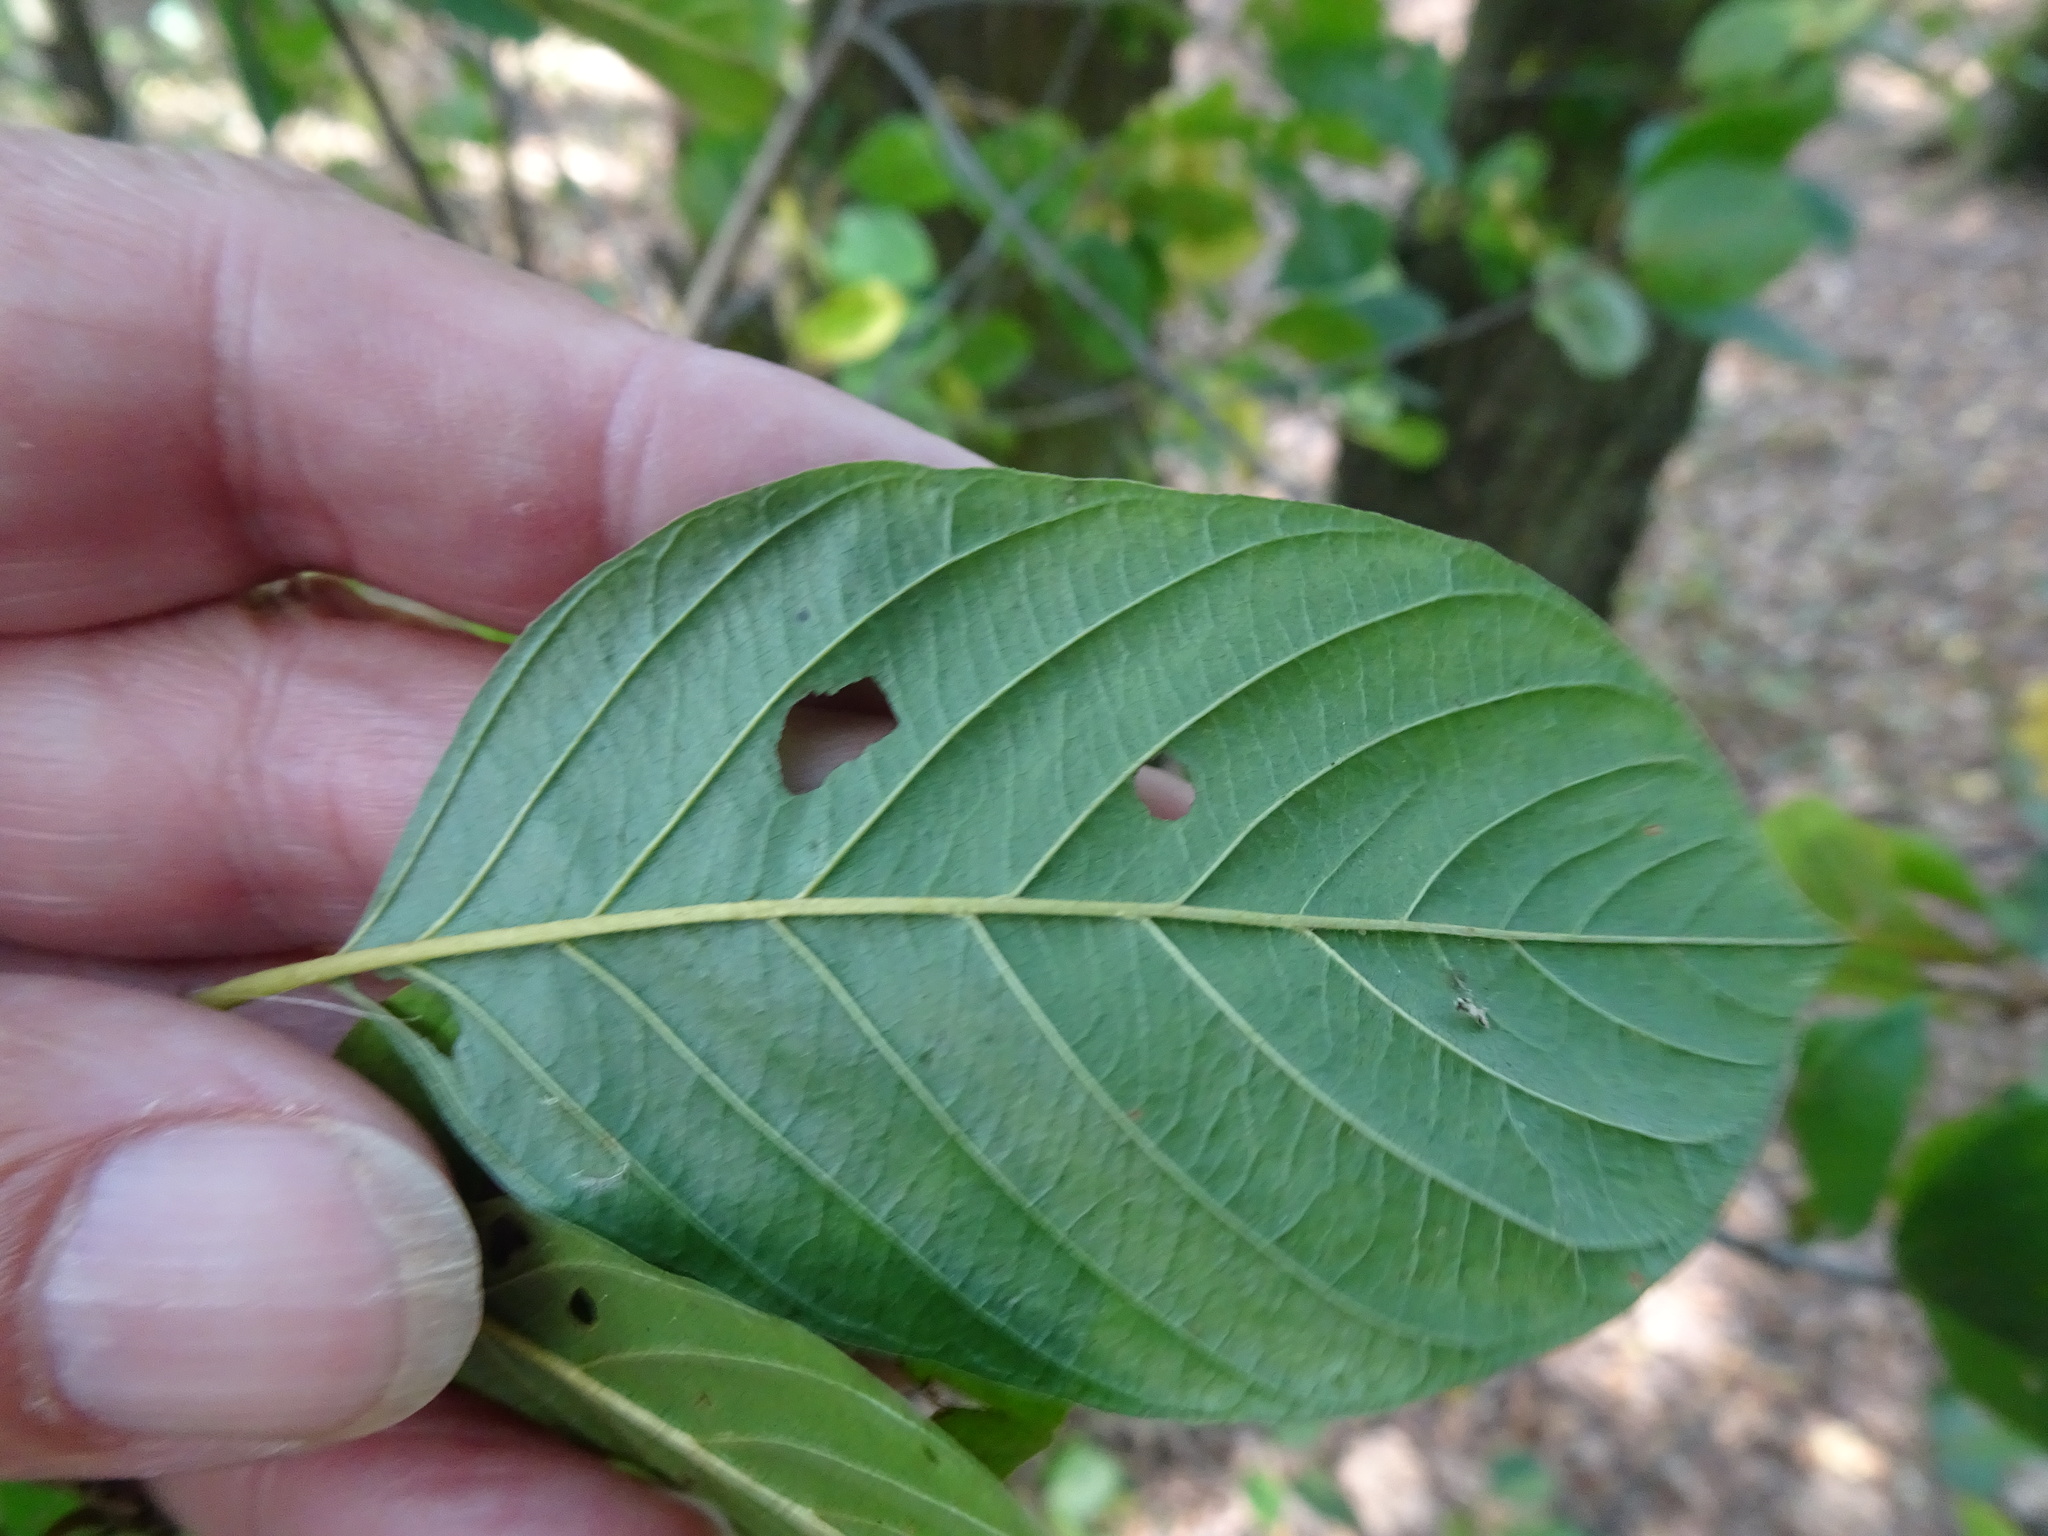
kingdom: Plantae
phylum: Tracheophyta
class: Magnoliopsida
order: Rosales
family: Rhamnaceae
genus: Frangula
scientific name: Frangula alnus
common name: Alder buckthorn
